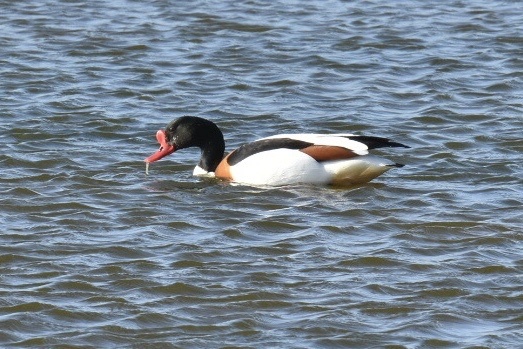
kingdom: Animalia
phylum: Chordata
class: Aves
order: Anseriformes
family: Anatidae
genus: Tadorna
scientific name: Tadorna tadorna
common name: Common shelduck
